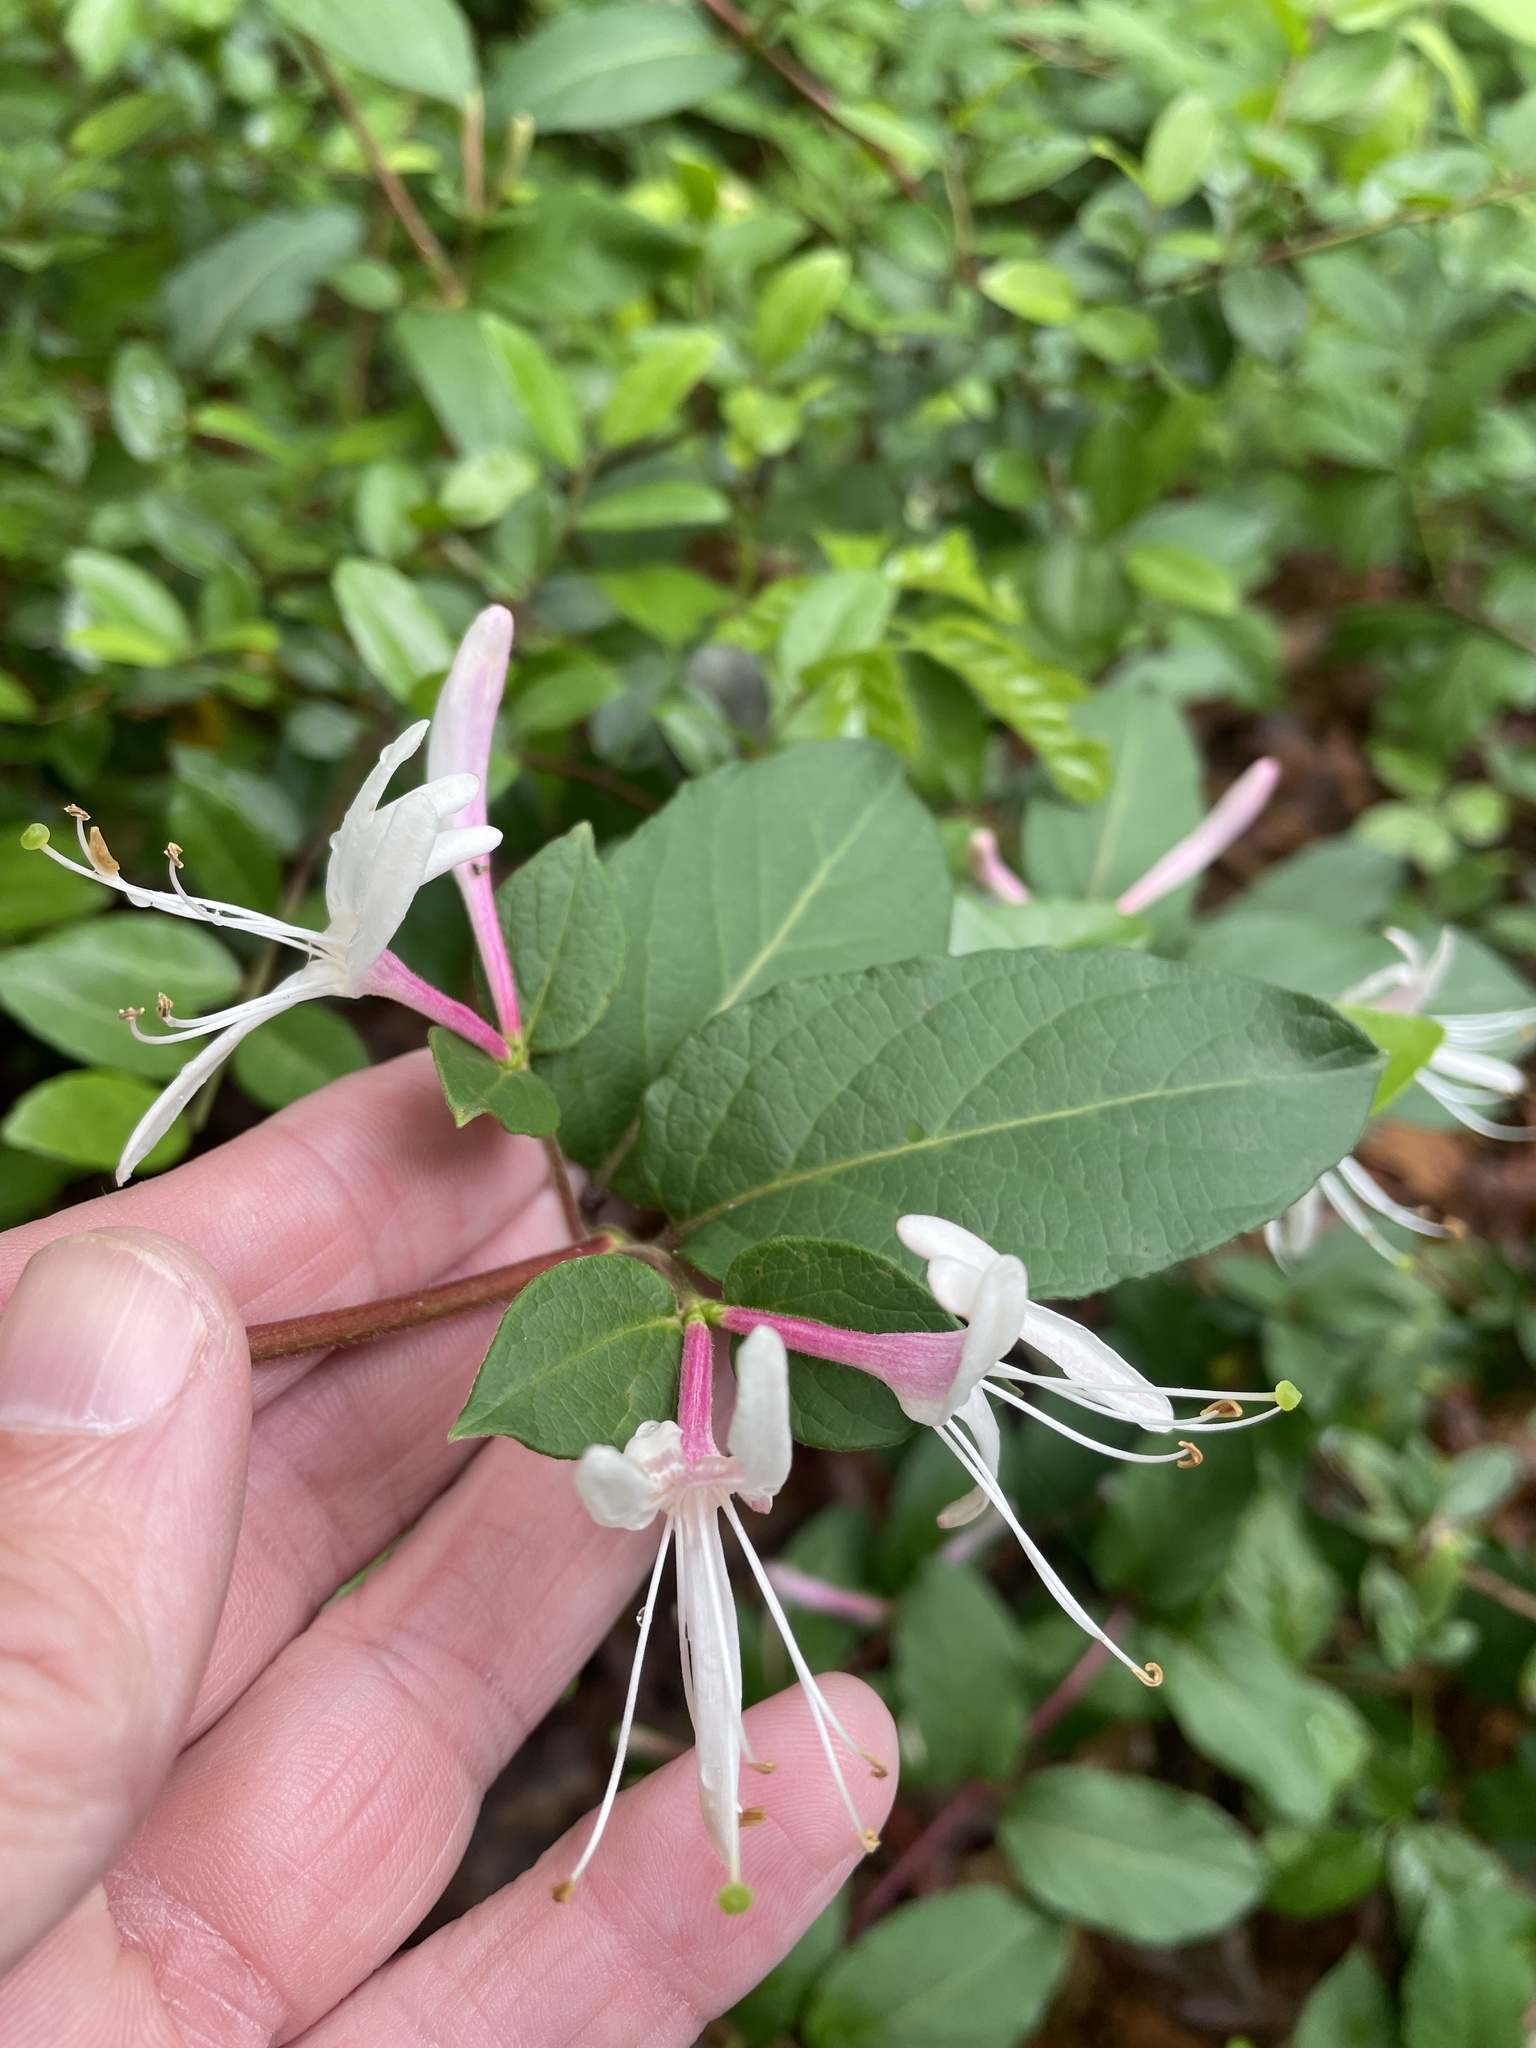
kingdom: Plantae
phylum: Tracheophyta
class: Magnoliopsida
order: Dipsacales
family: Caprifoliaceae
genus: Lonicera
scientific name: Lonicera japonica
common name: Japanese honeysuckle
